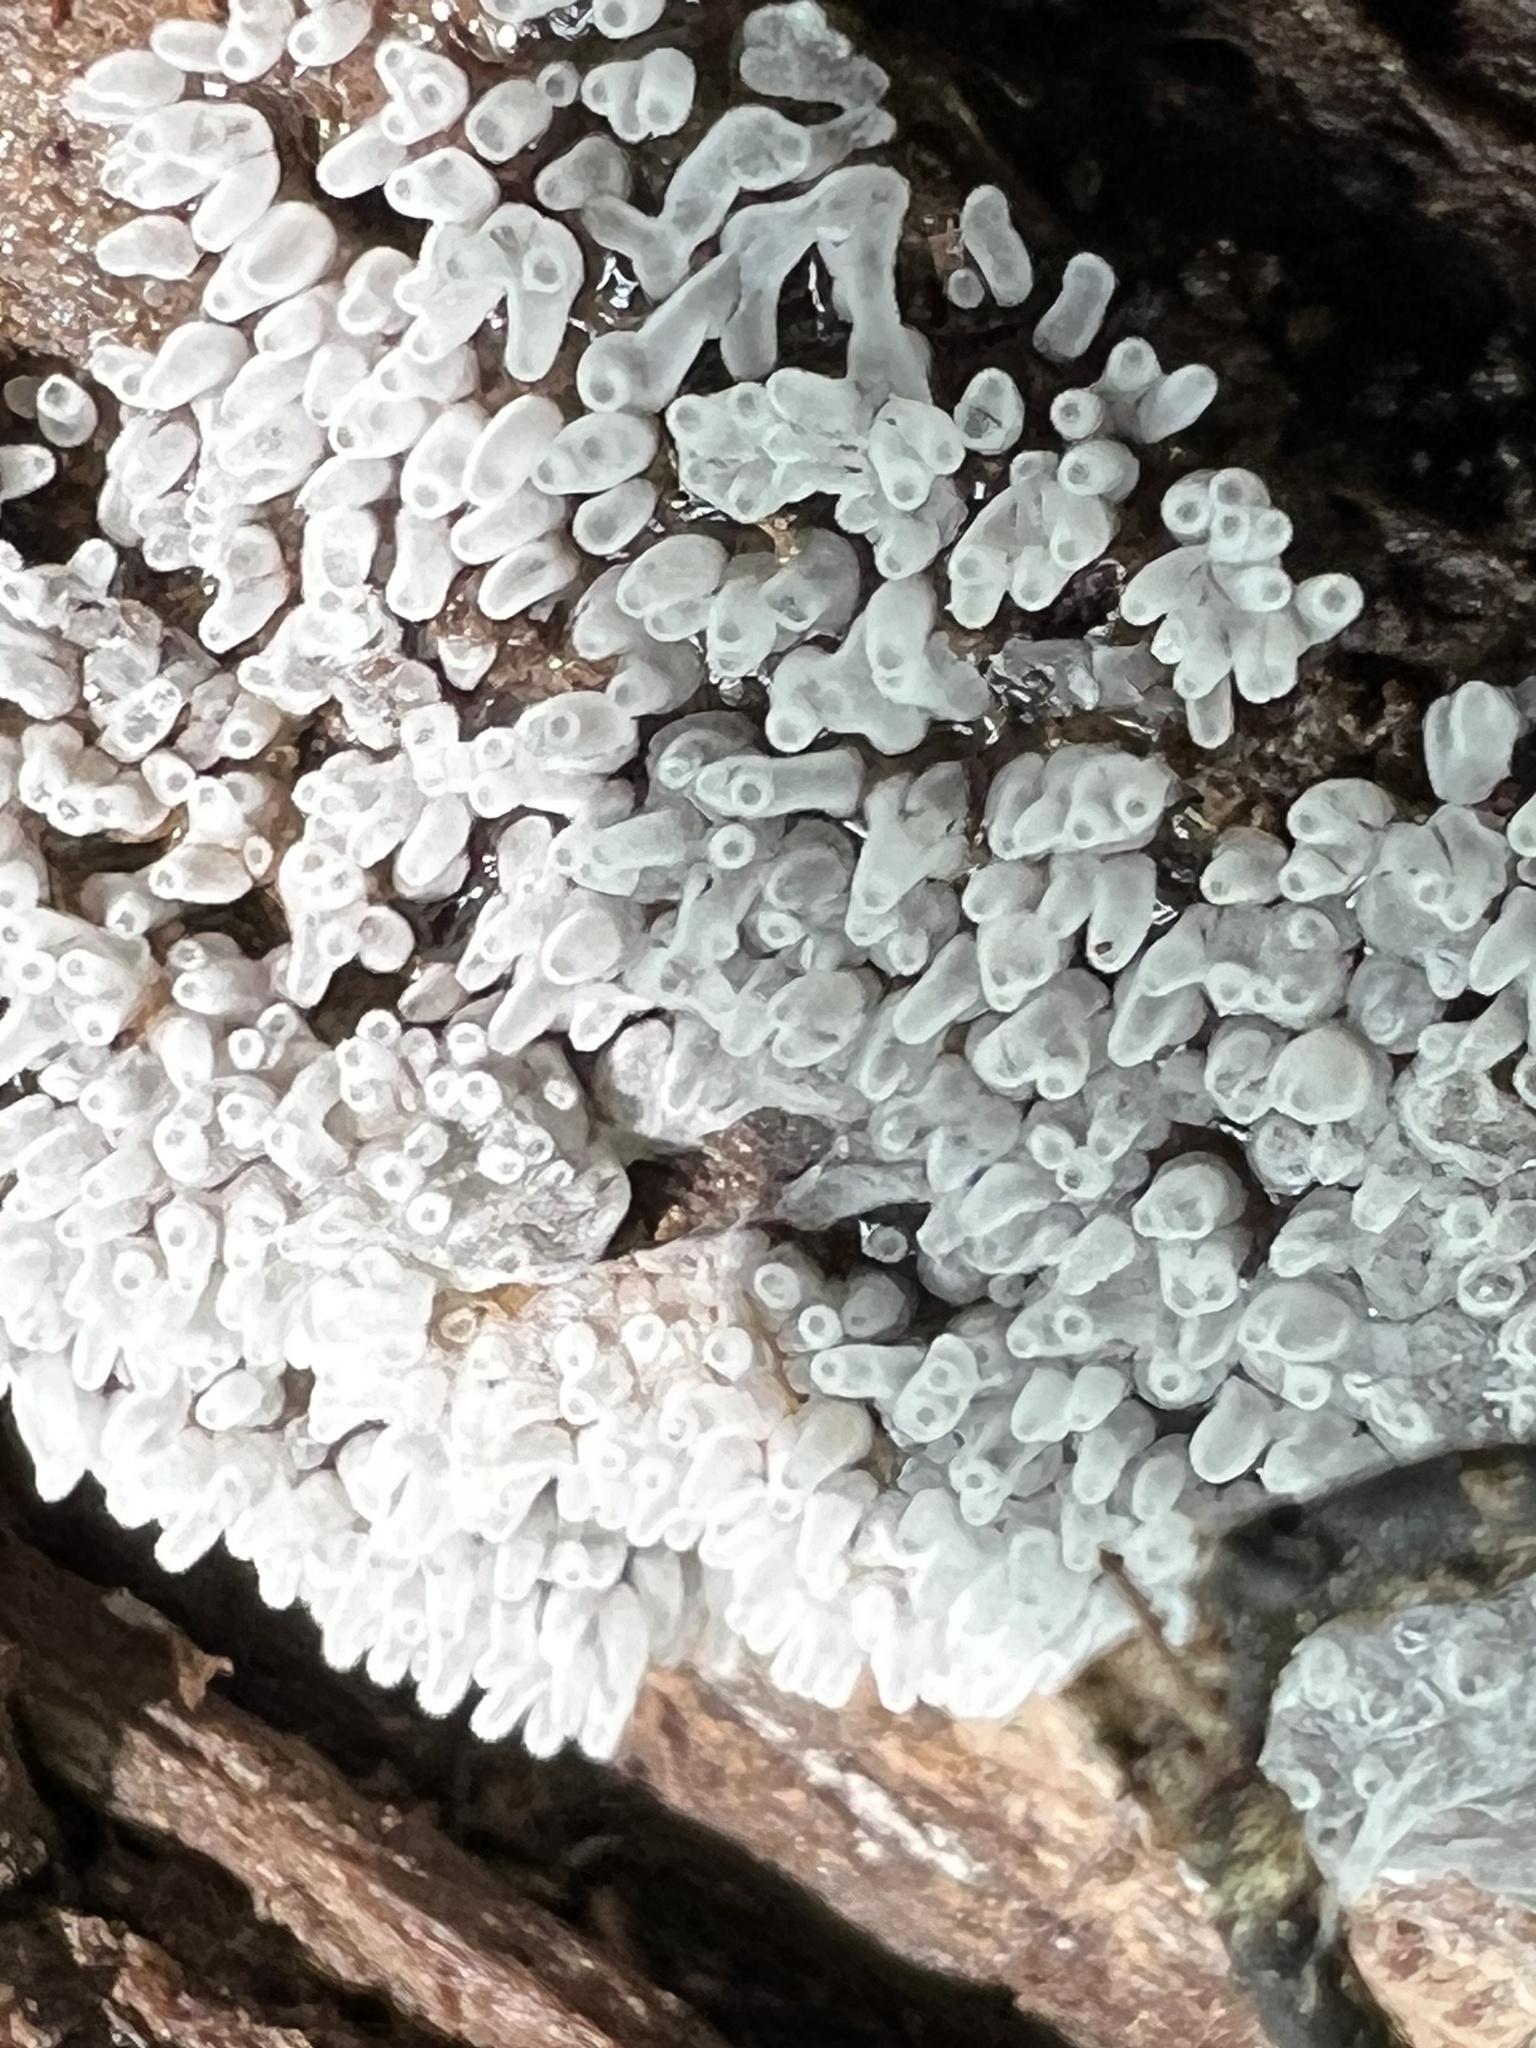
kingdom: Protozoa
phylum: Mycetozoa
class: Protosteliomycetes
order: Ceratiomyxales
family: Ceratiomyxaceae
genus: Ceratiomyxa
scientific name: Ceratiomyxa fruticulosa
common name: Honeycomb coral slime mold
